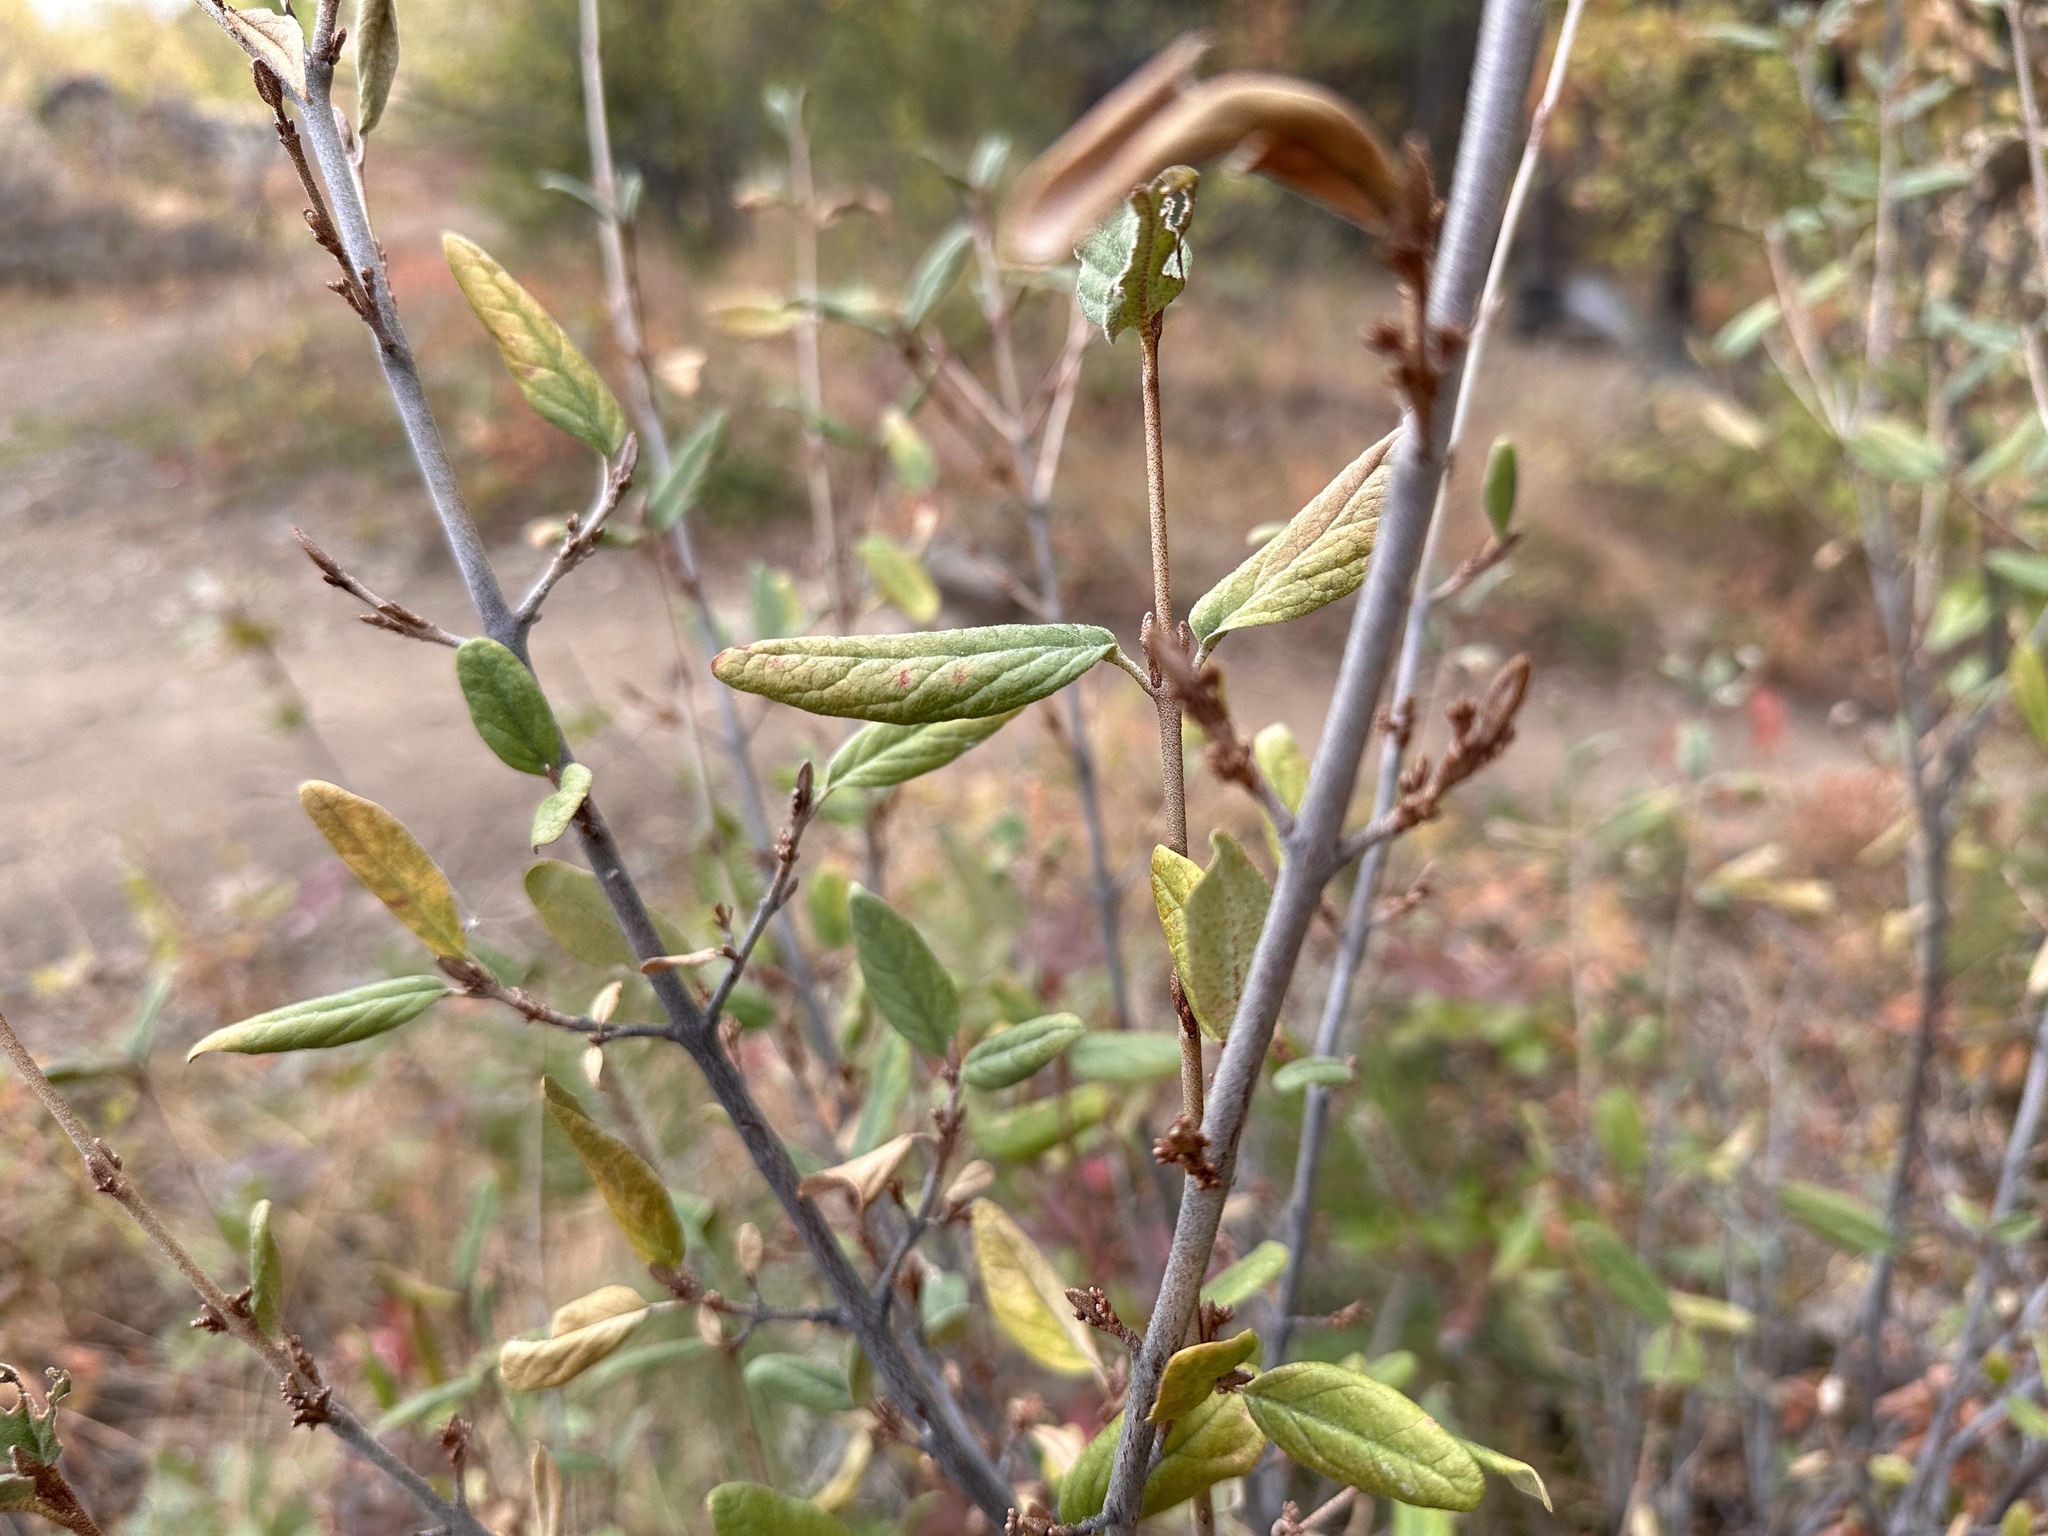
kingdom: Plantae
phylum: Tracheophyta
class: Magnoliopsida
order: Rosales
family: Elaeagnaceae
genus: Shepherdia
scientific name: Shepherdia canadensis
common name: Soapberry
